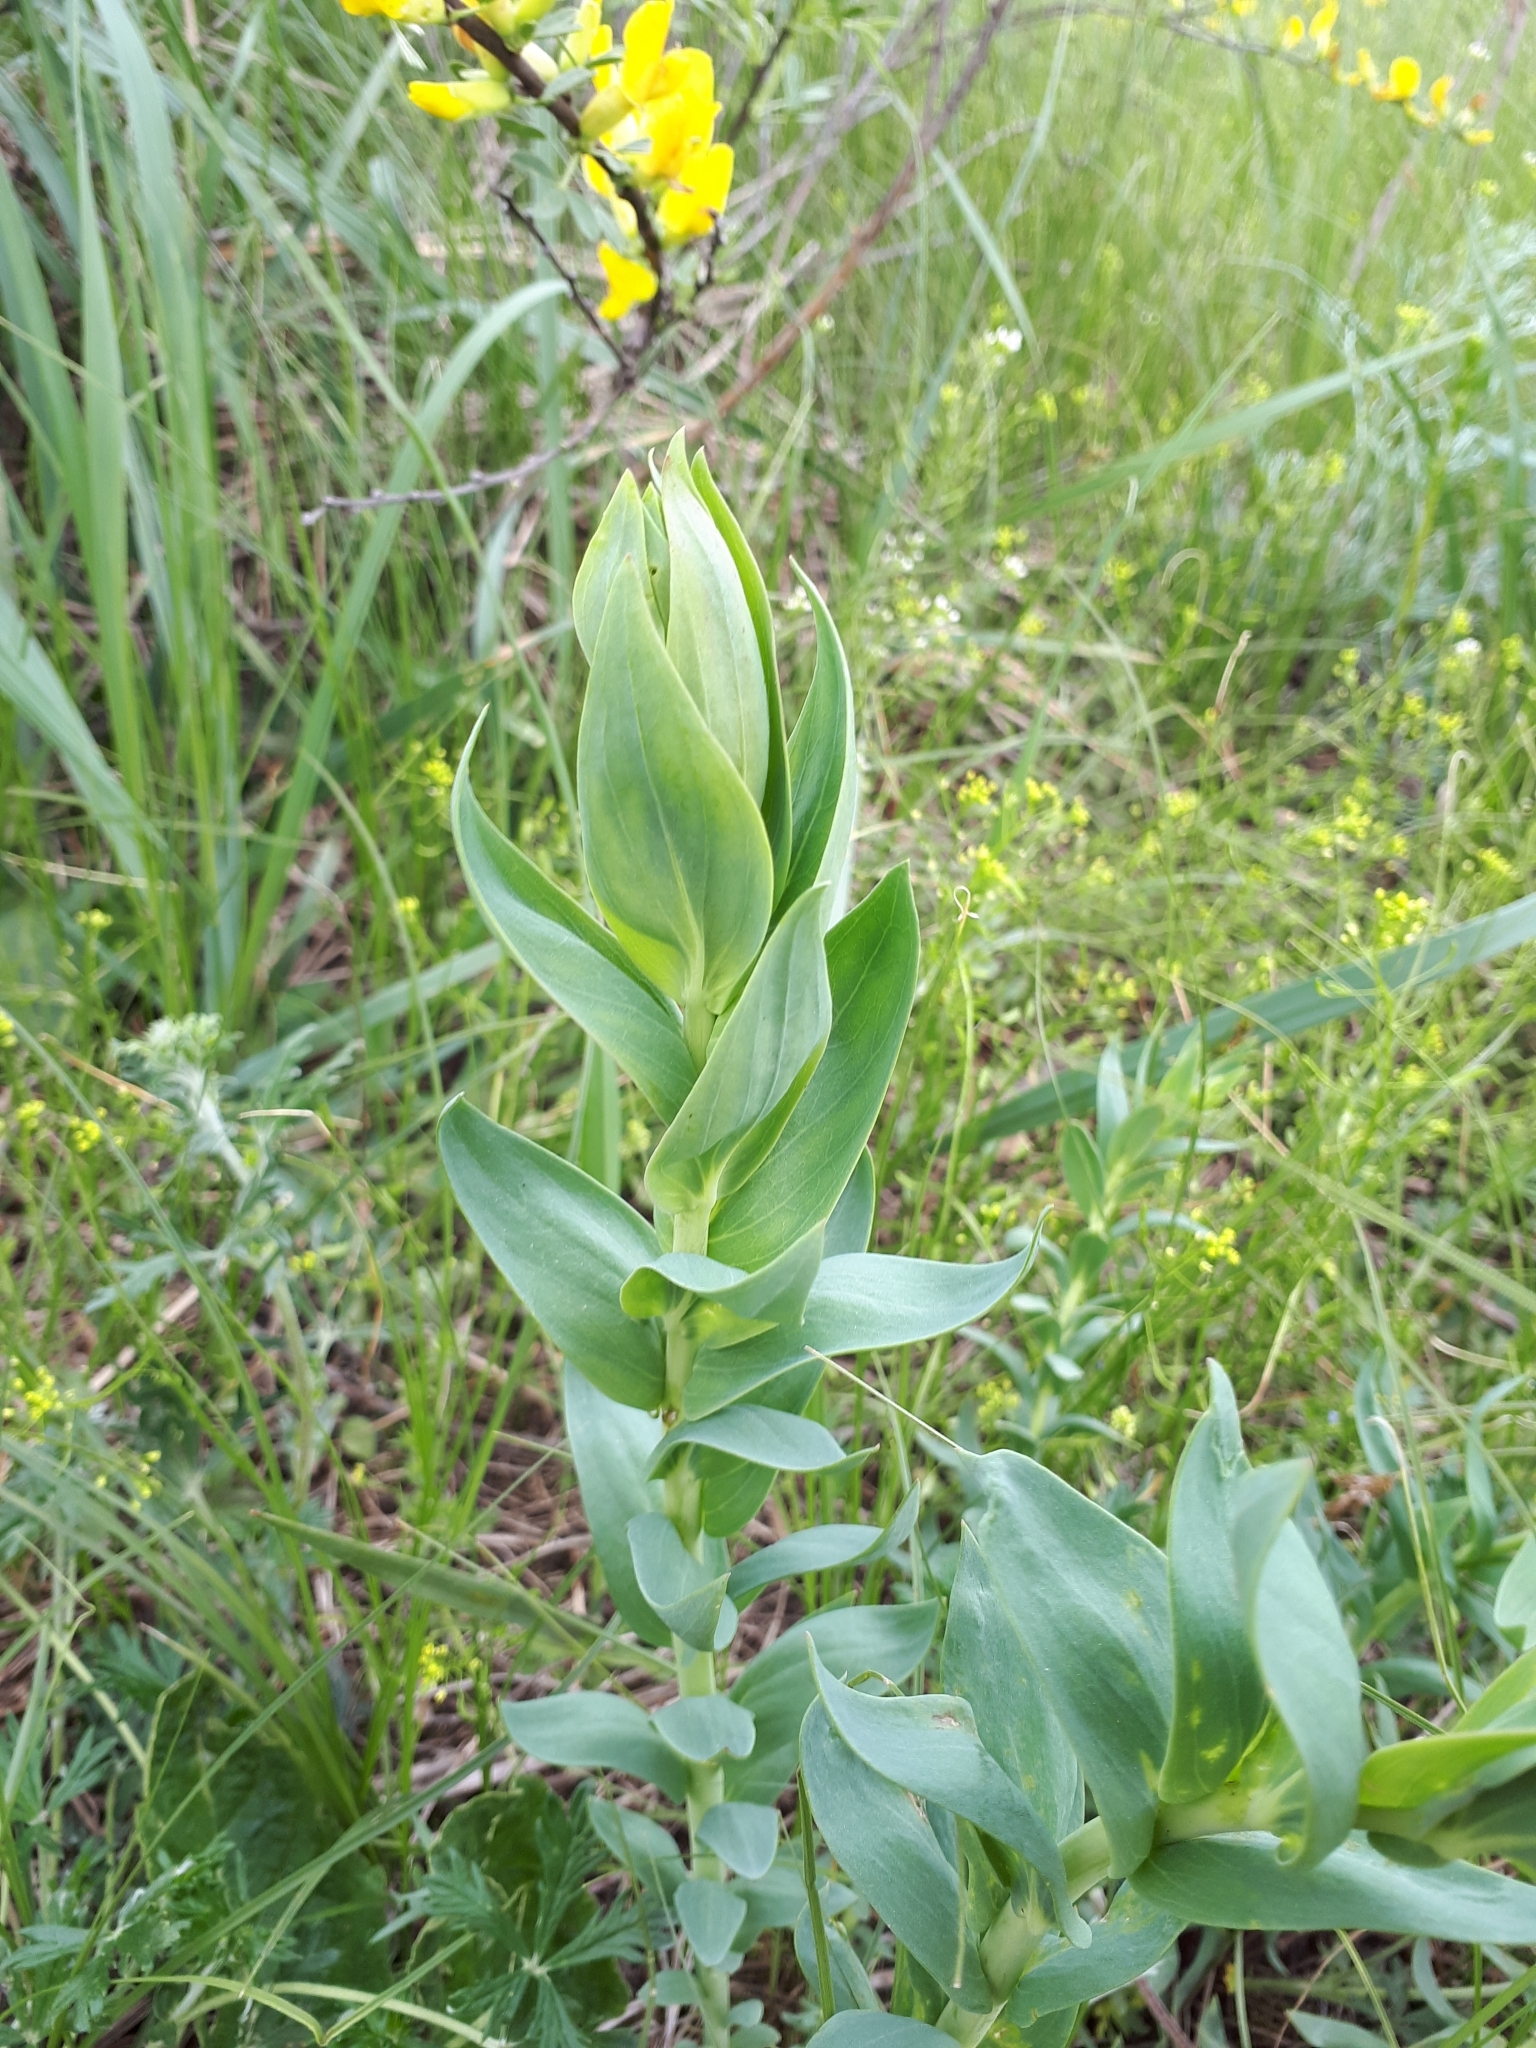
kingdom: Plantae
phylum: Tracheophyta
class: Magnoliopsida
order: Lamiales
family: Plantaginaceae
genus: Linaria
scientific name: Linaria genistifolia
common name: Broomleaf toadflax
